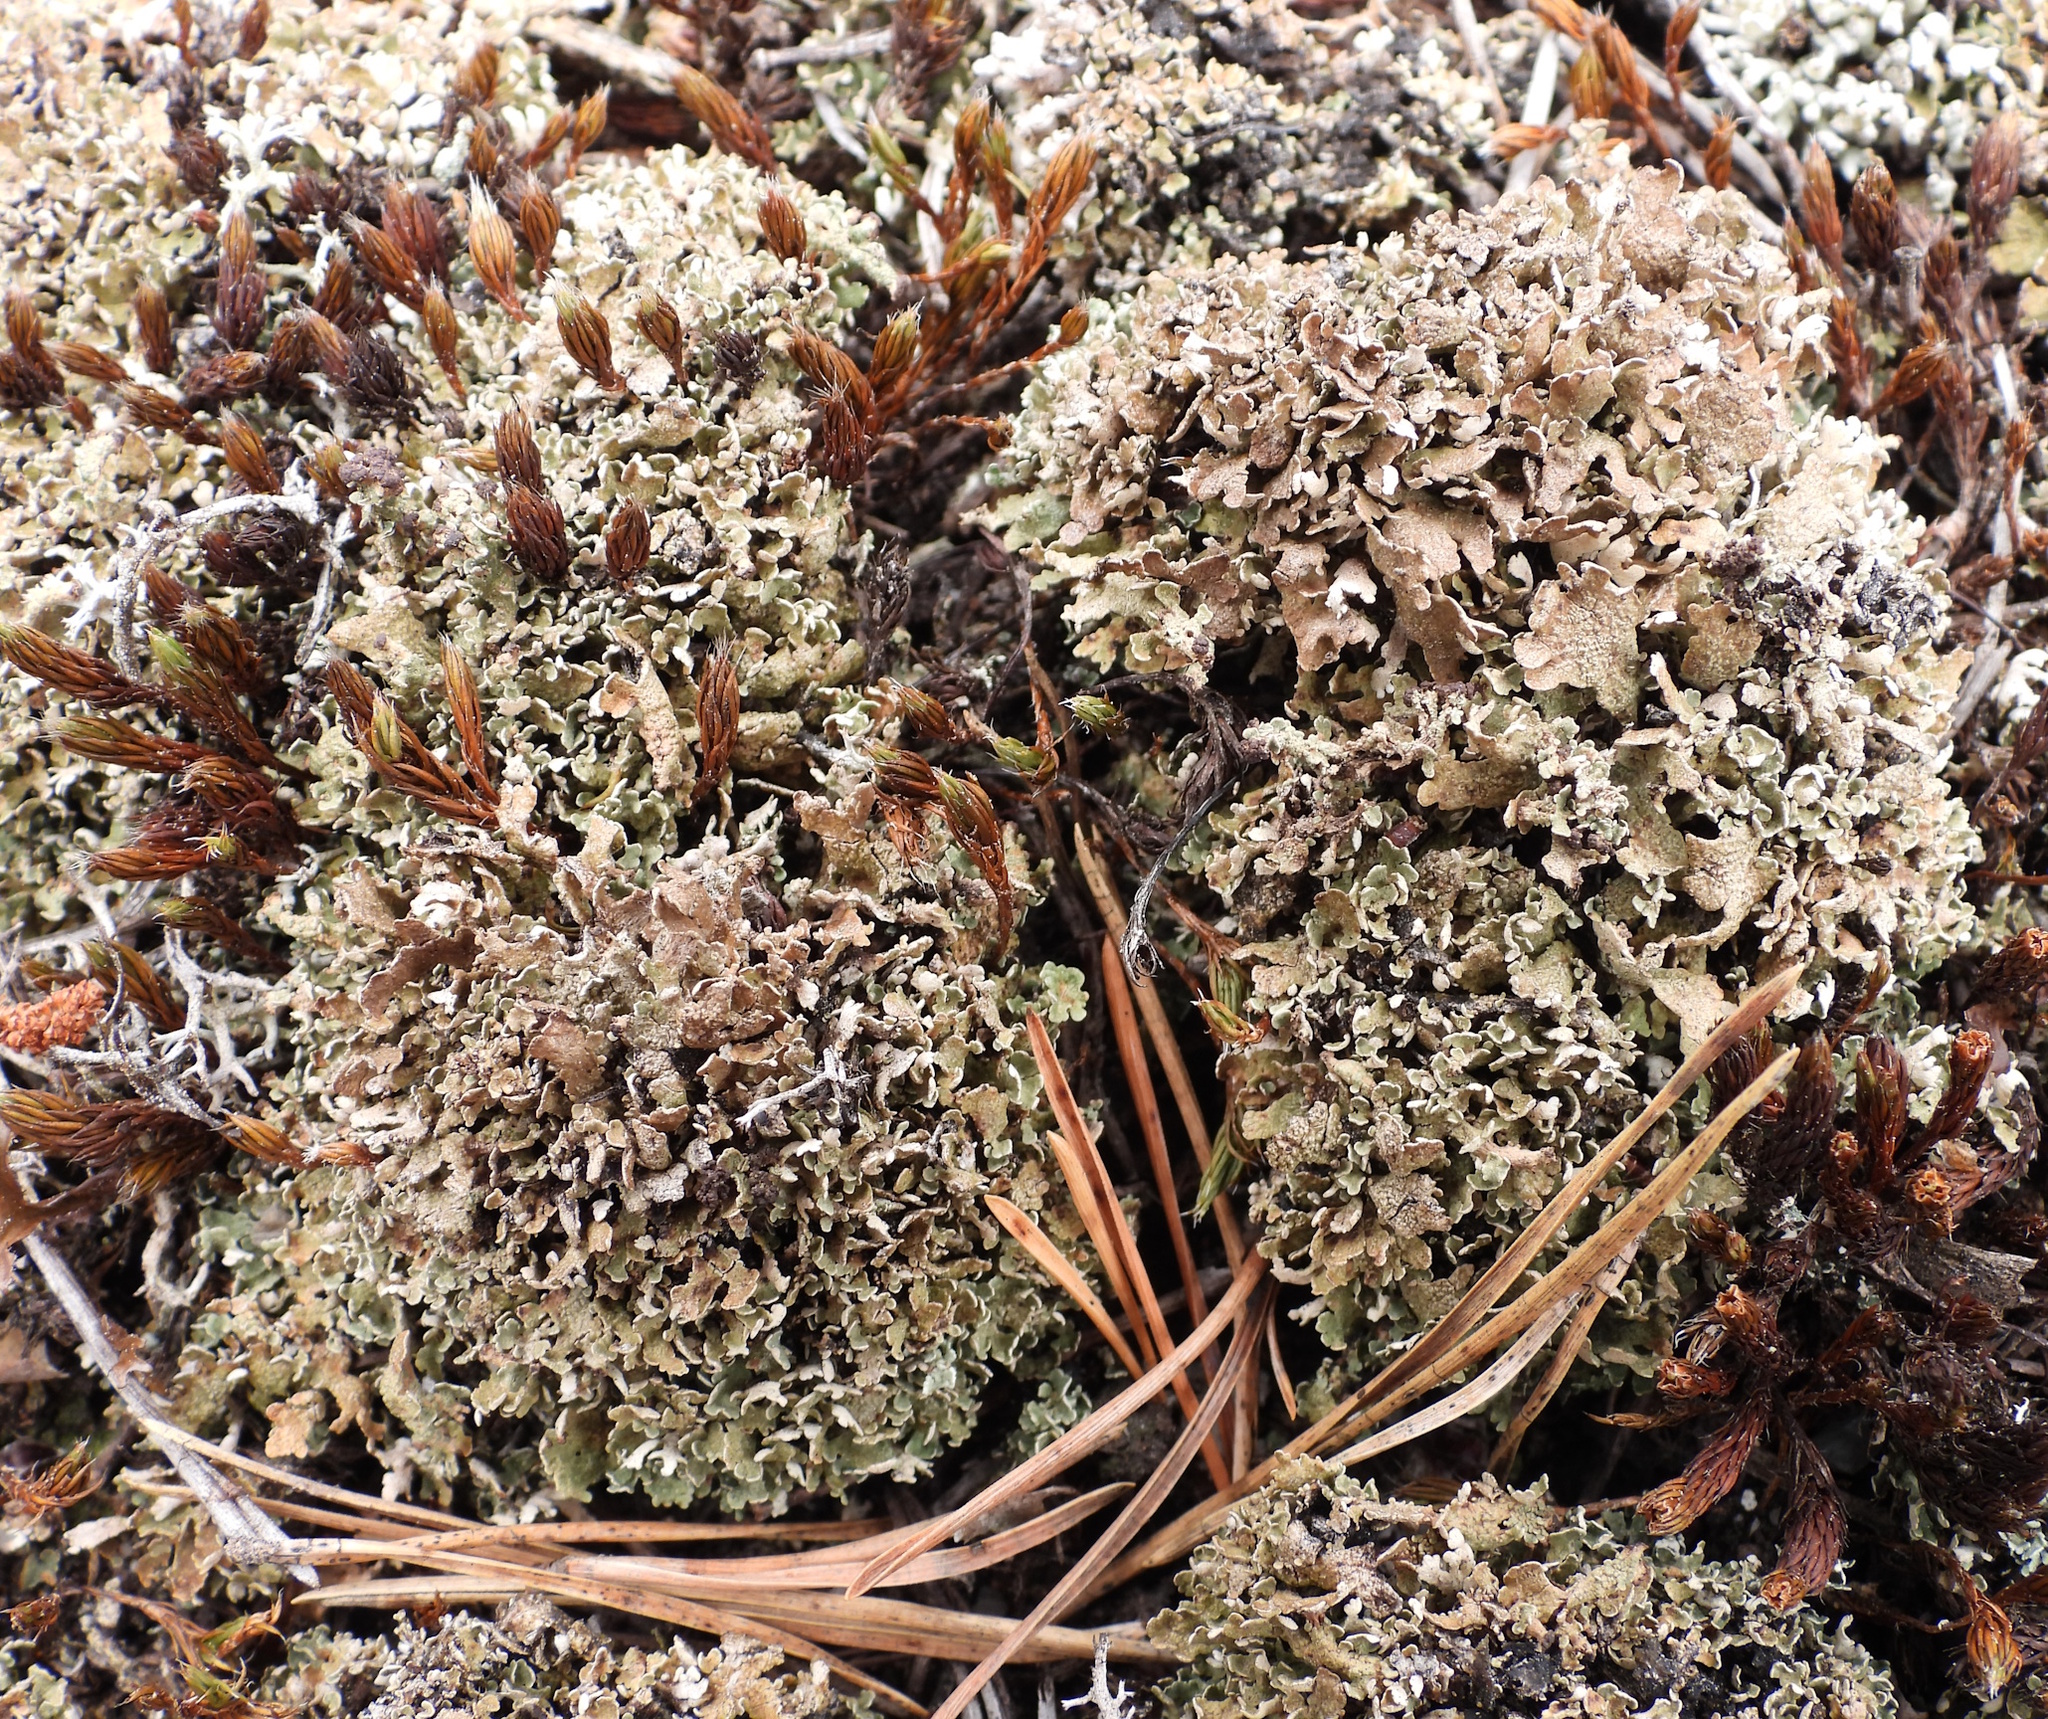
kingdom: Fungi
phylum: Ascomycota
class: Lecanoromycetes
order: Lecanorales
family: Cladoniaceae
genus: Cladonia
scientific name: Cladonia strepsilis
